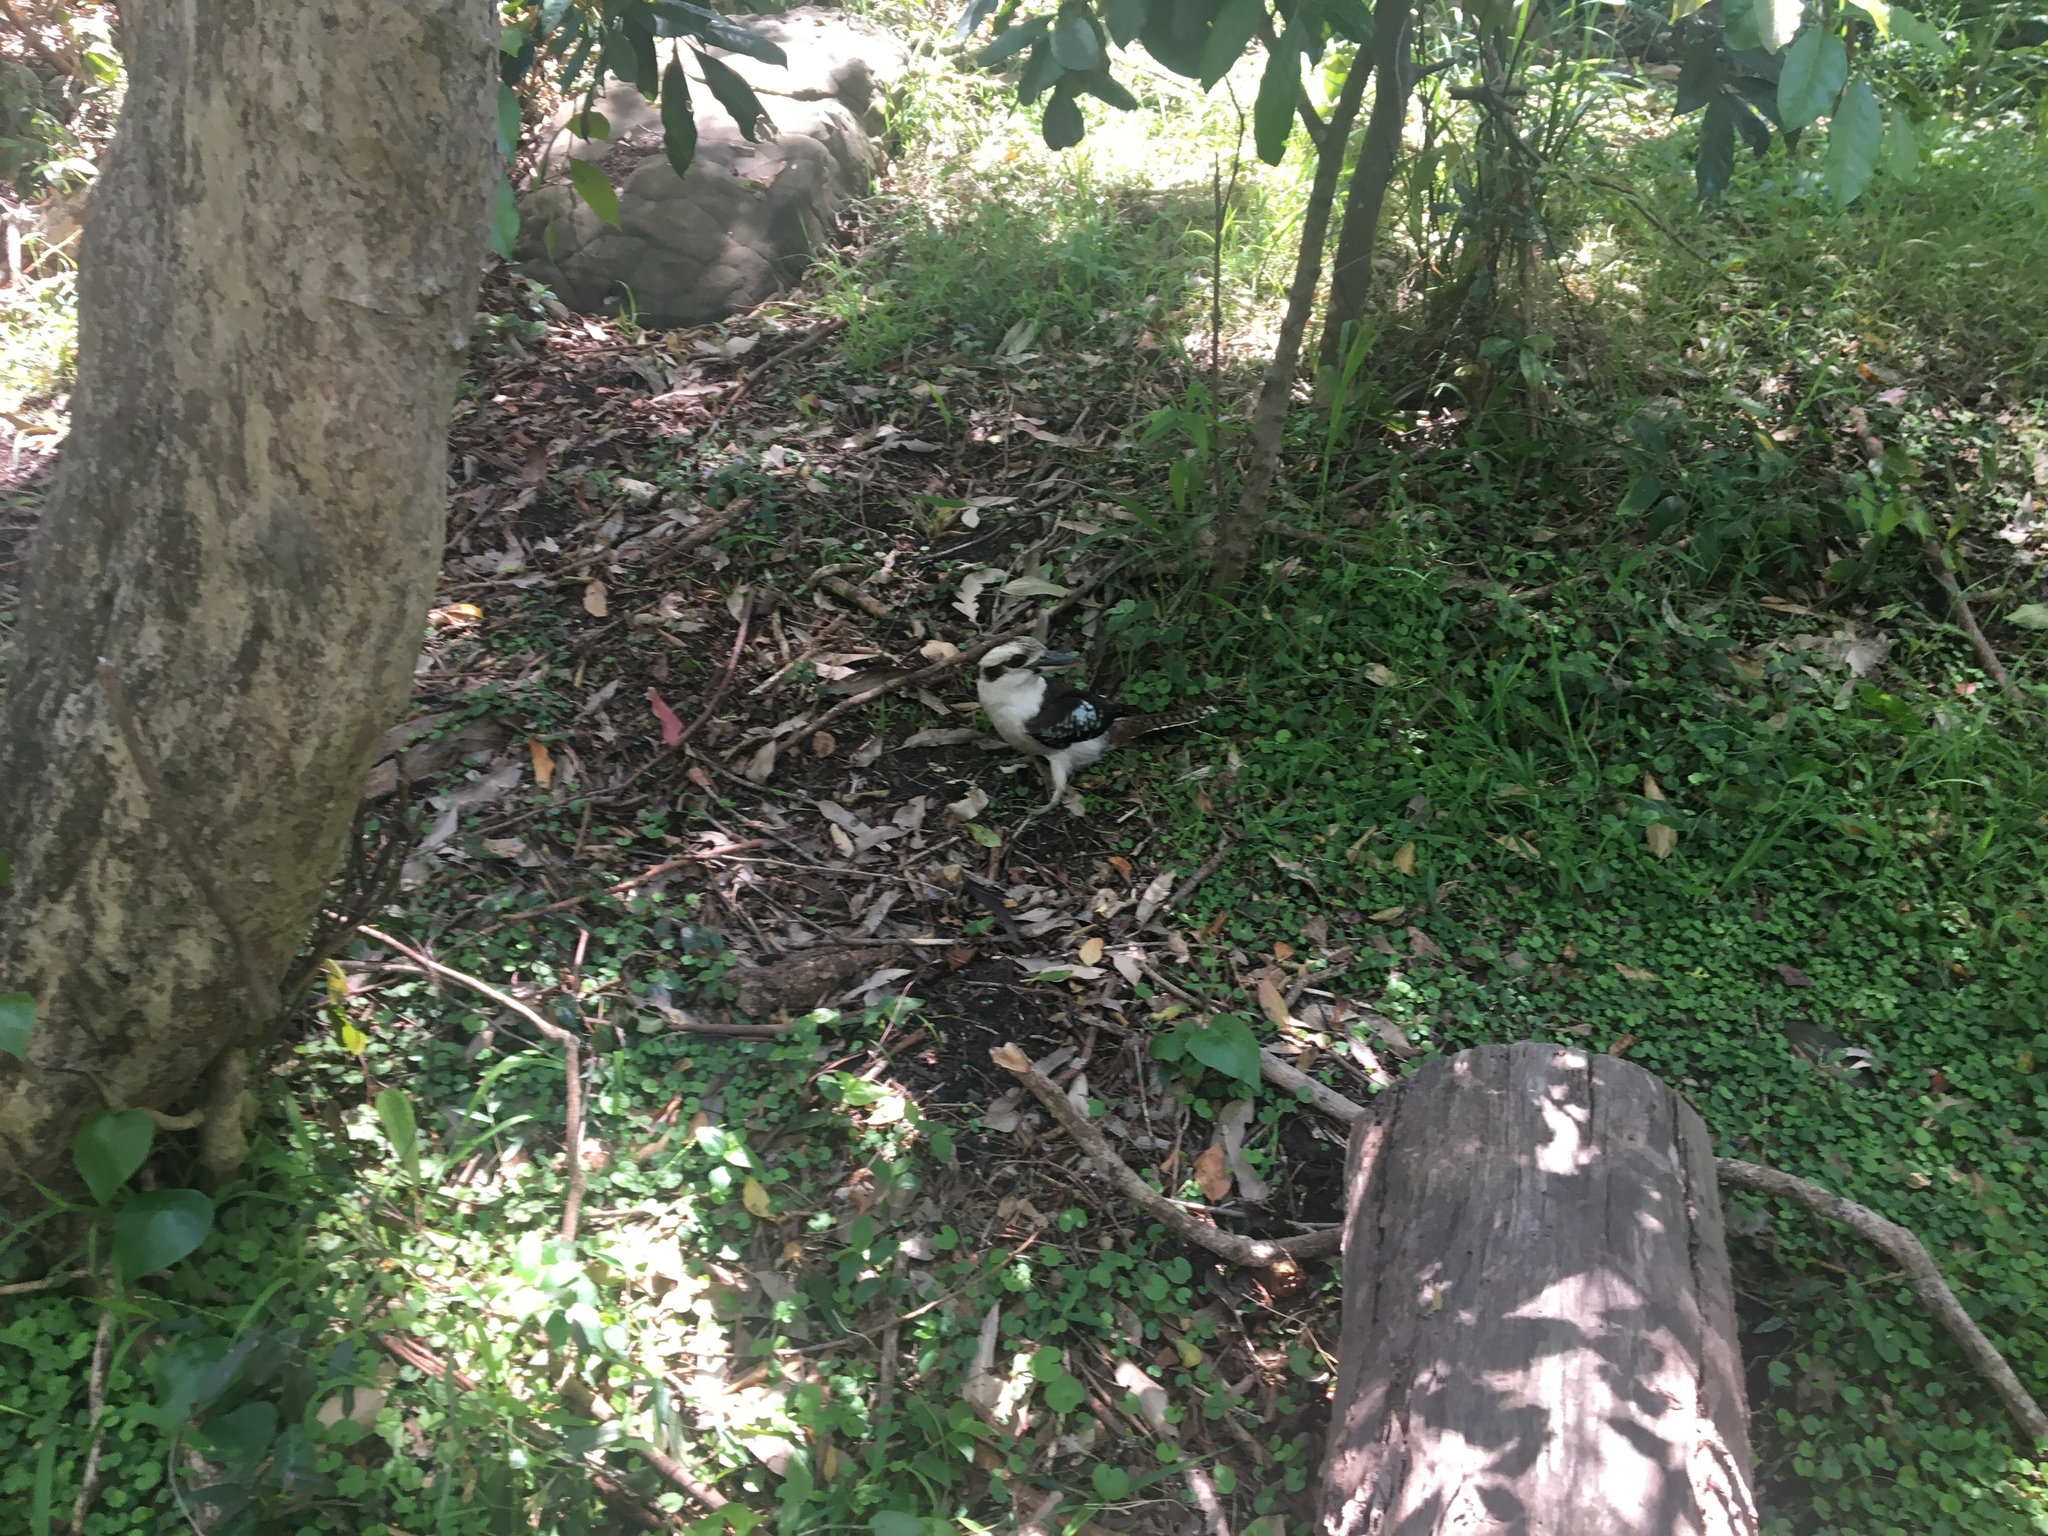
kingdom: Animalia
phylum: Chordata
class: Aves
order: Coraciiformes
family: Alcedinidae
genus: Dacelo
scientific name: Dacelo novaeguineae
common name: Laughing kookaburra
